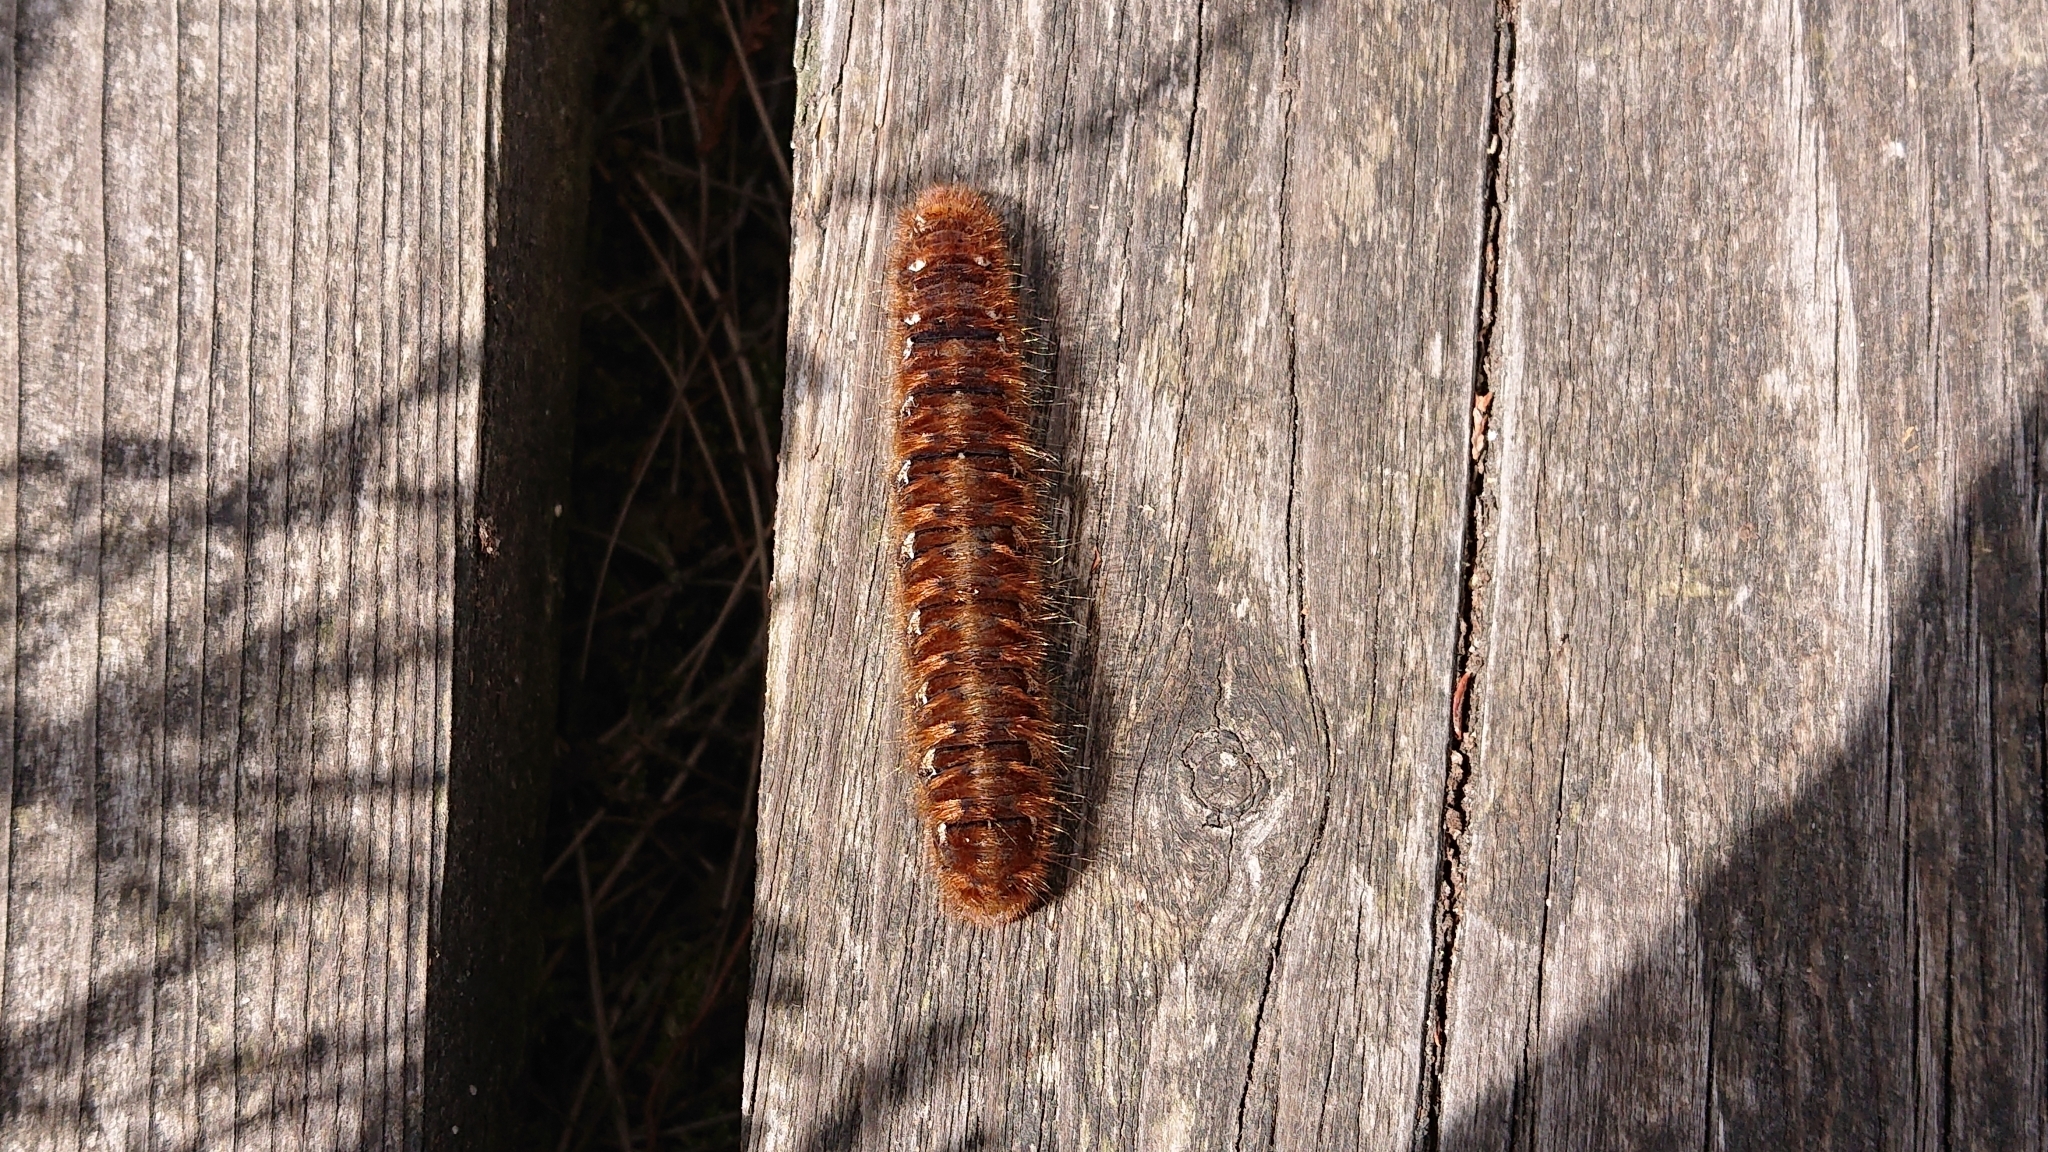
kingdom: Animalia
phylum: Arthropoda
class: Insecta
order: Lepidoptera
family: Lasiocampidae
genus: Lasiocampa
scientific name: Lasiocampa quercus
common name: Oak eggar
